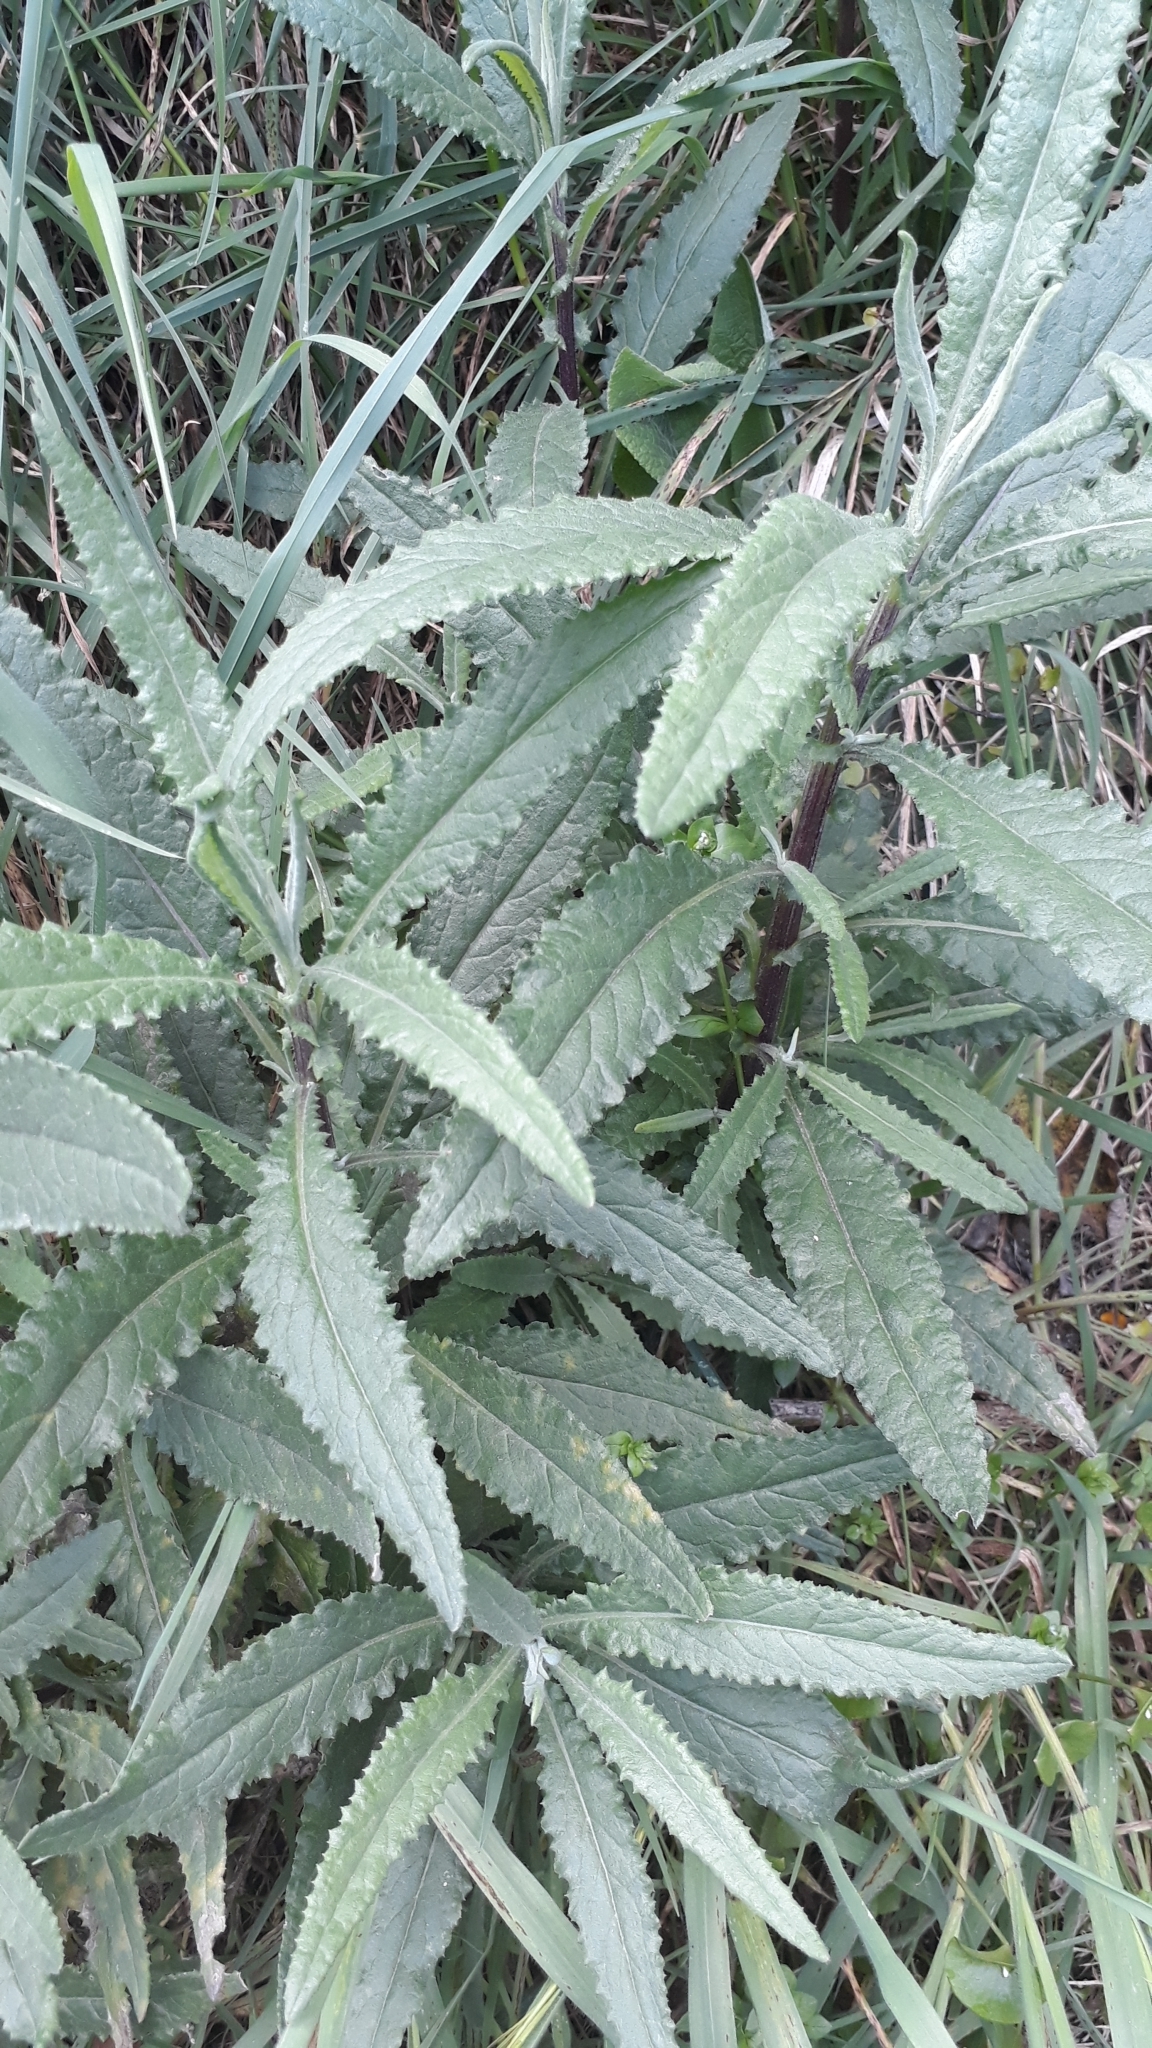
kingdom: Plantae
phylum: Tracheophyta
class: Magnoliopsida
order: Asterales
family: Asteraceae
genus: Senecio
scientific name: Senecio minimus
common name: Toothed fireweed
